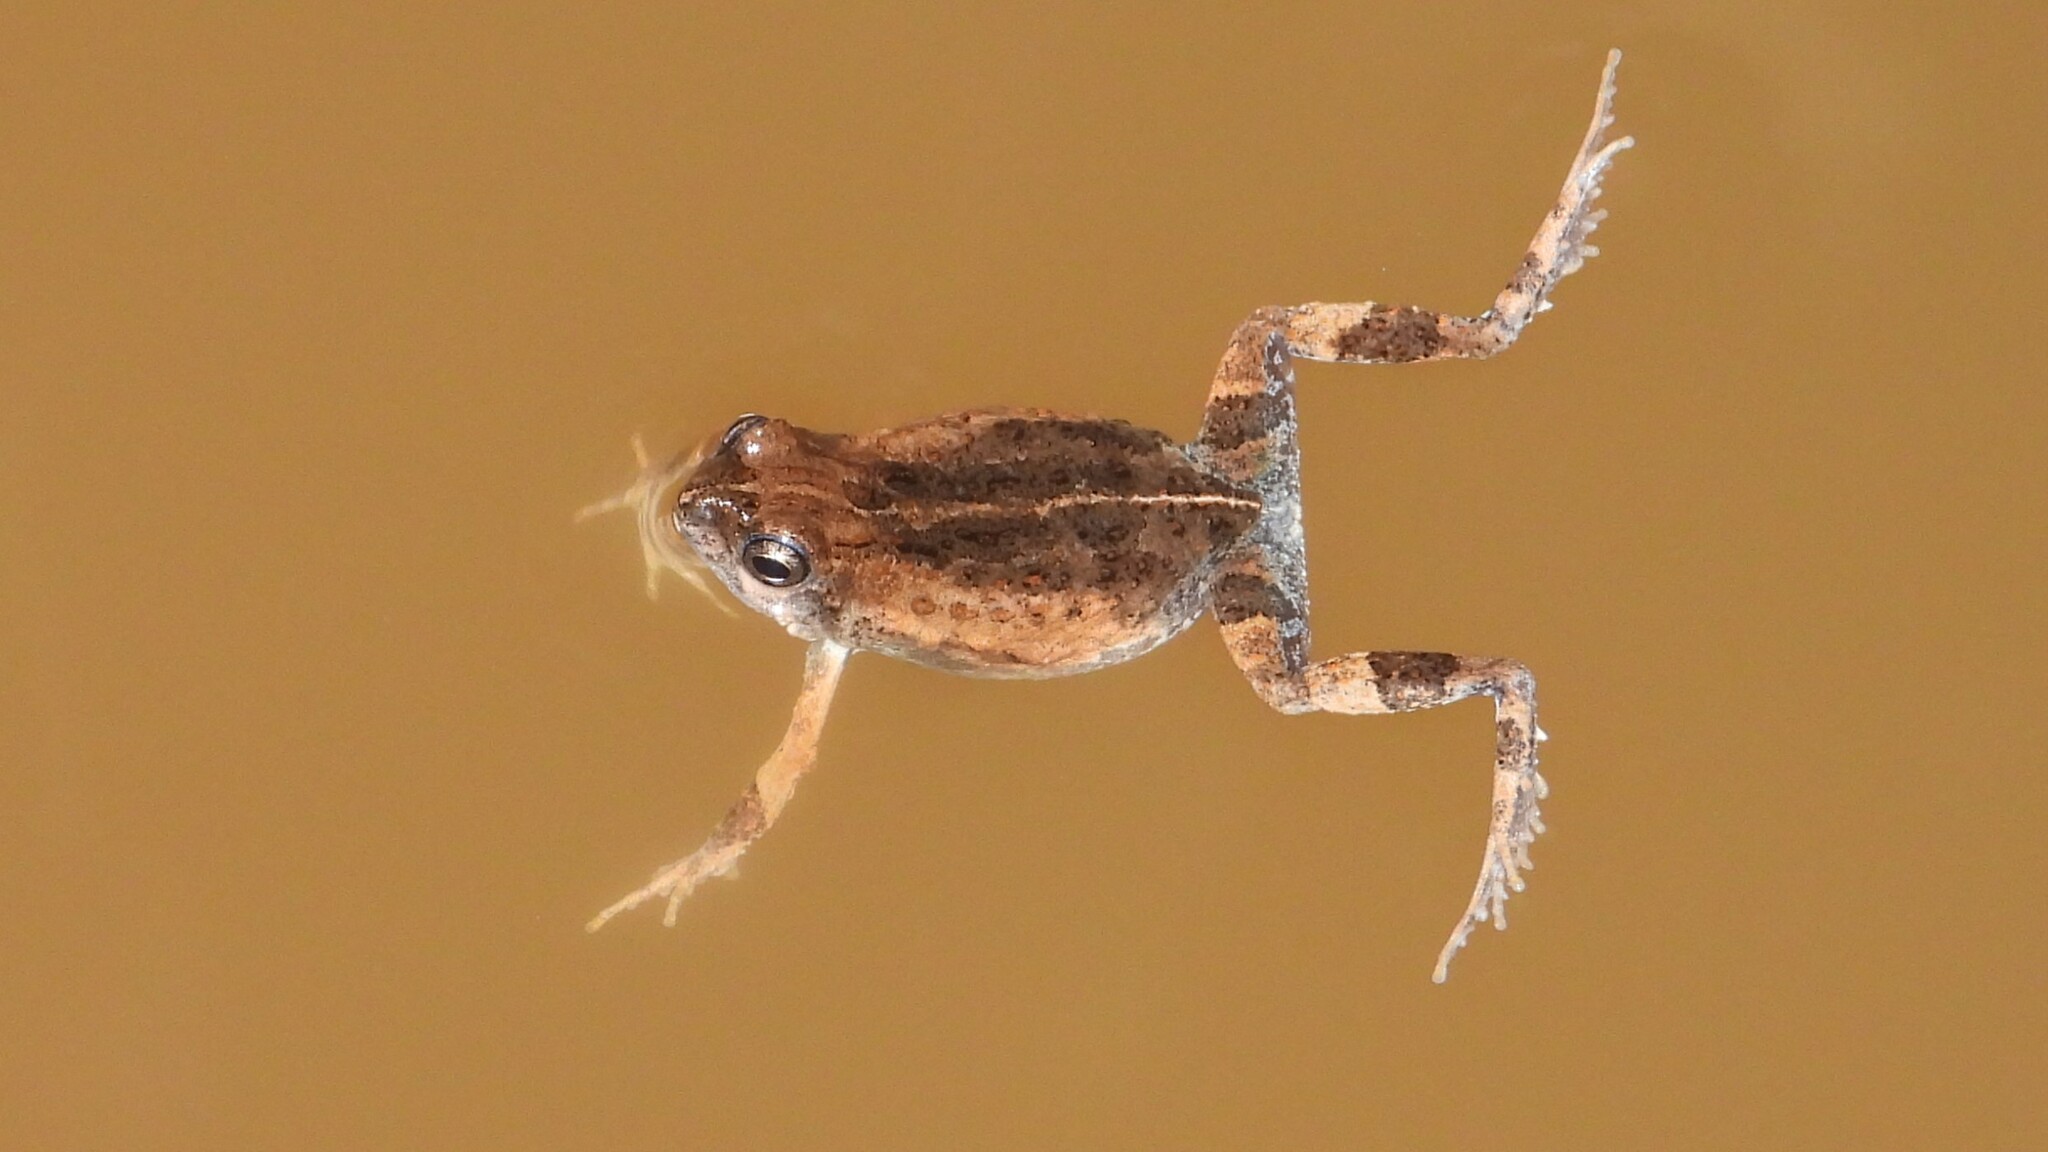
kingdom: Animalia
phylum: Chordata
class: Amphibia
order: Anura
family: Leptodactylidae
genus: Engystomops
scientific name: Engystomops pustulosus
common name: Tungara frog
